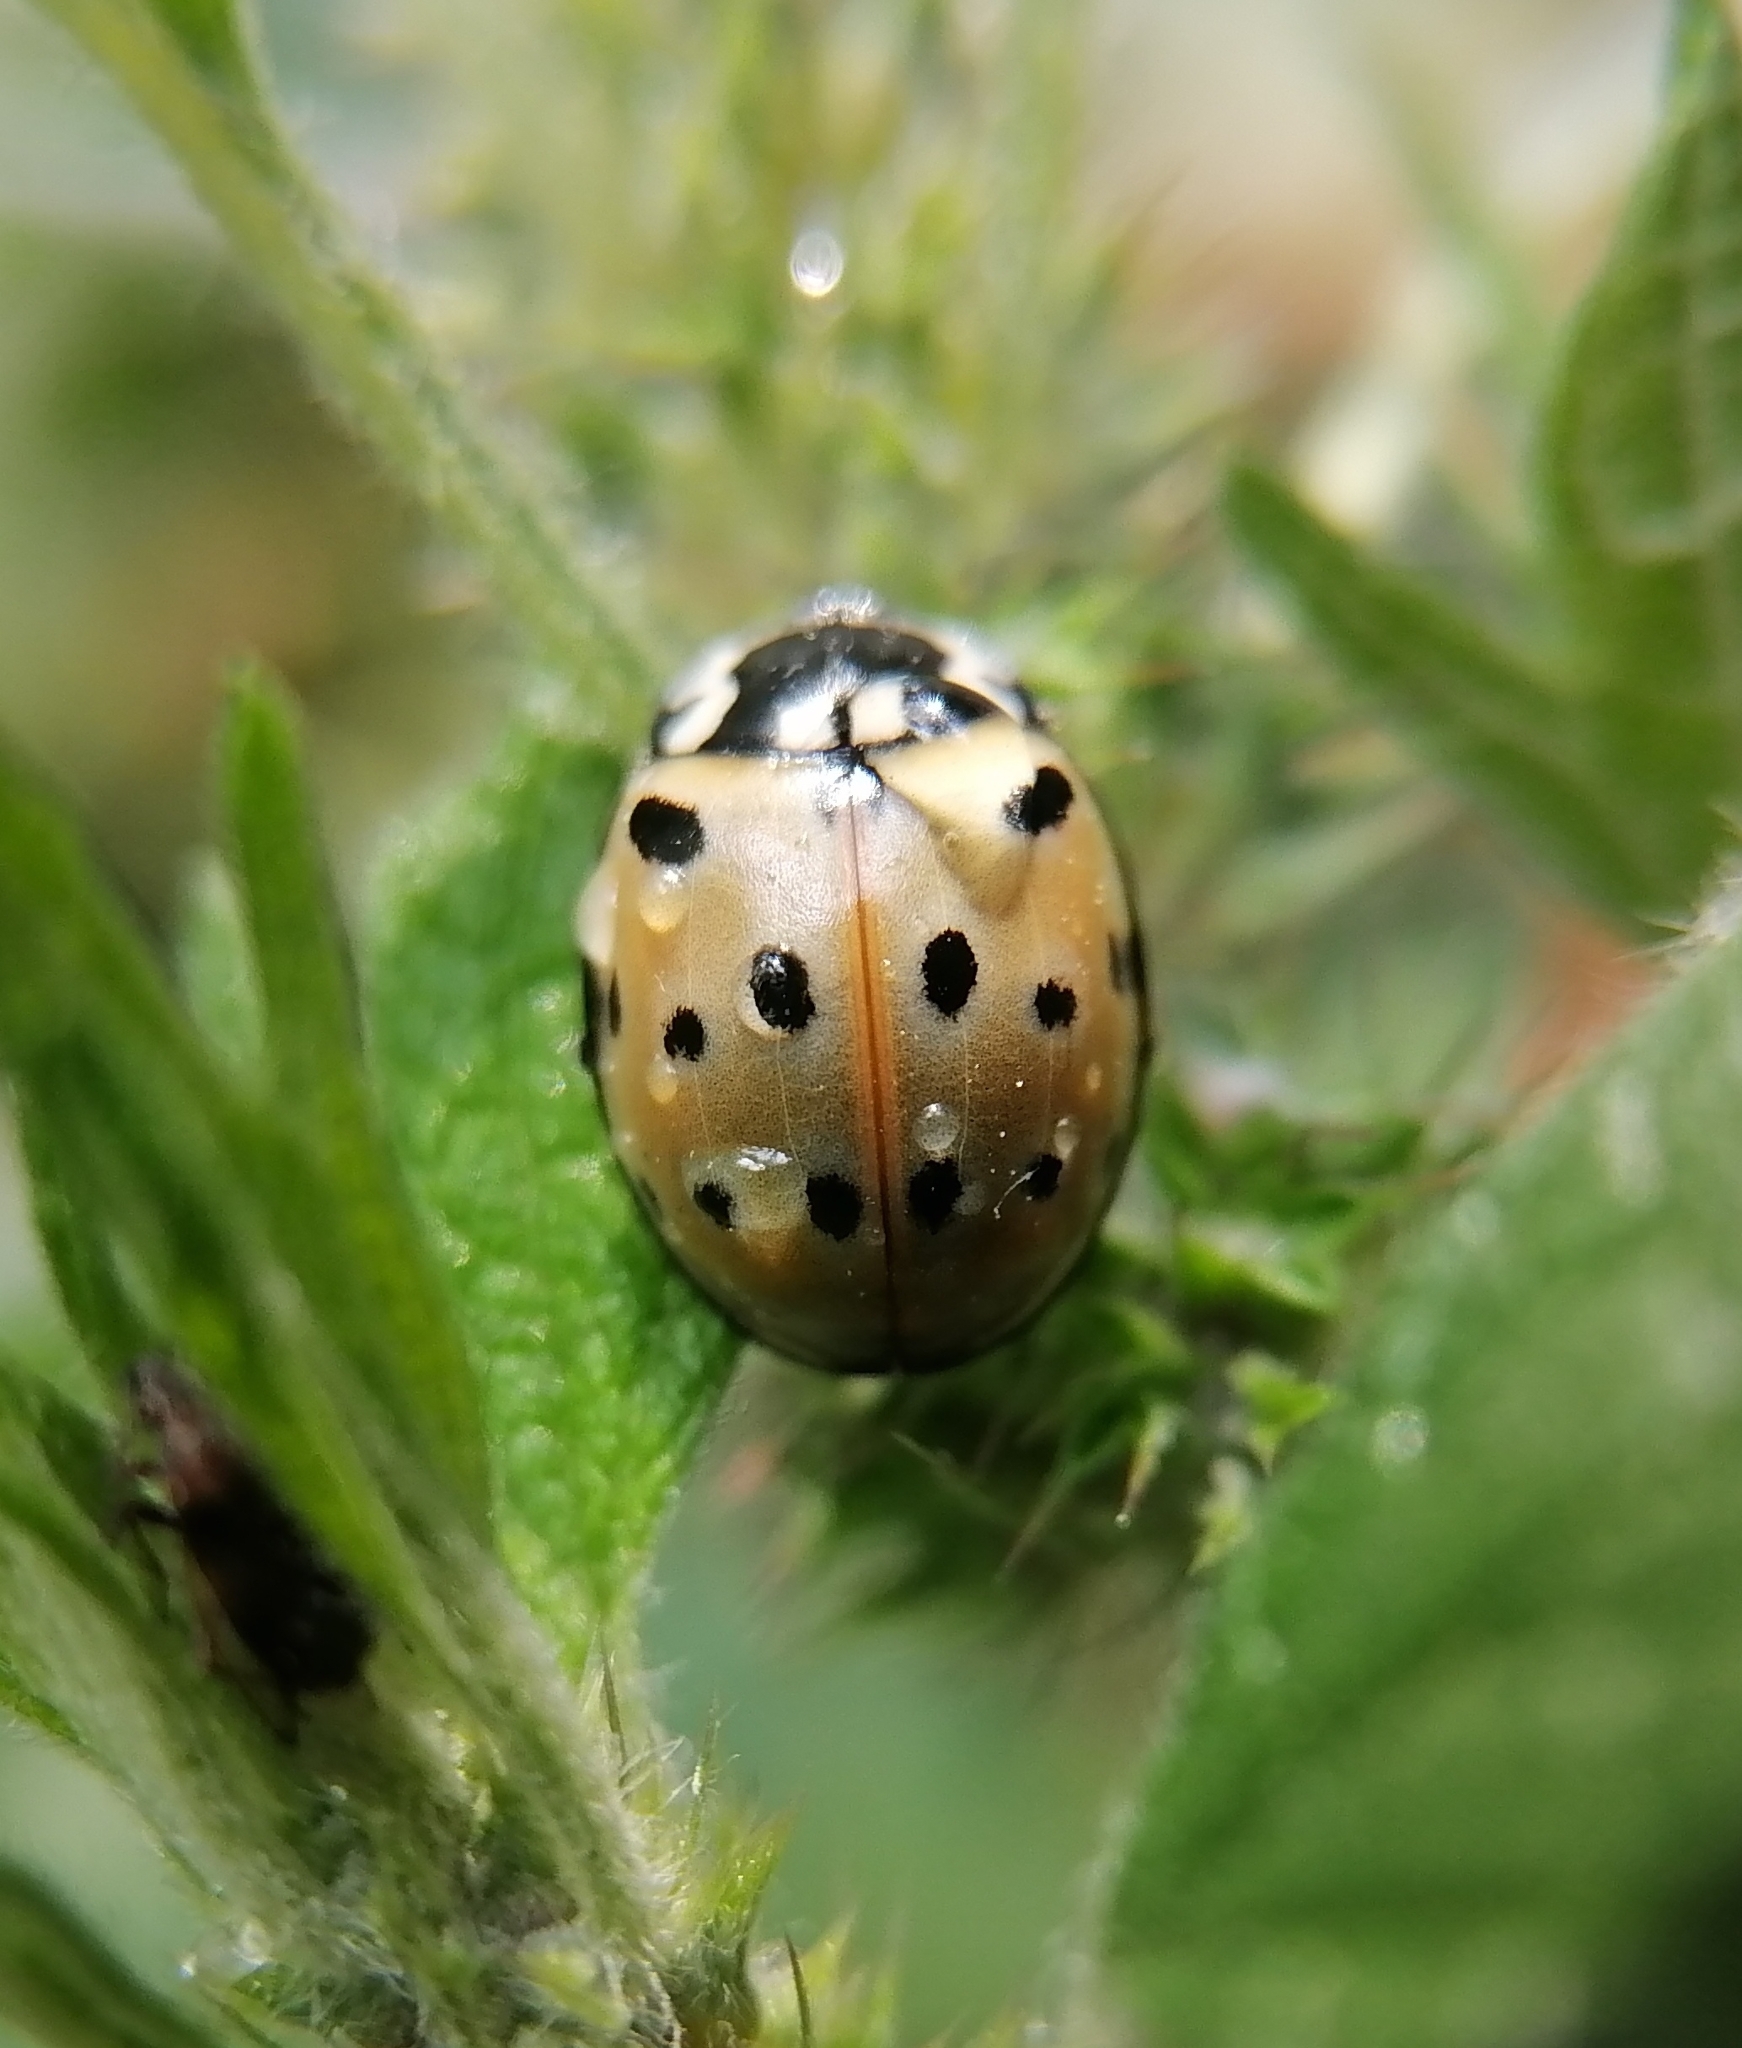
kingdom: Animalia
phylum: Arthropoda
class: Insecta
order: Coleoptera
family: Coccinellidae
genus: Anatis
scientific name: Anatis ocellata
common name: Eyed ladybird
